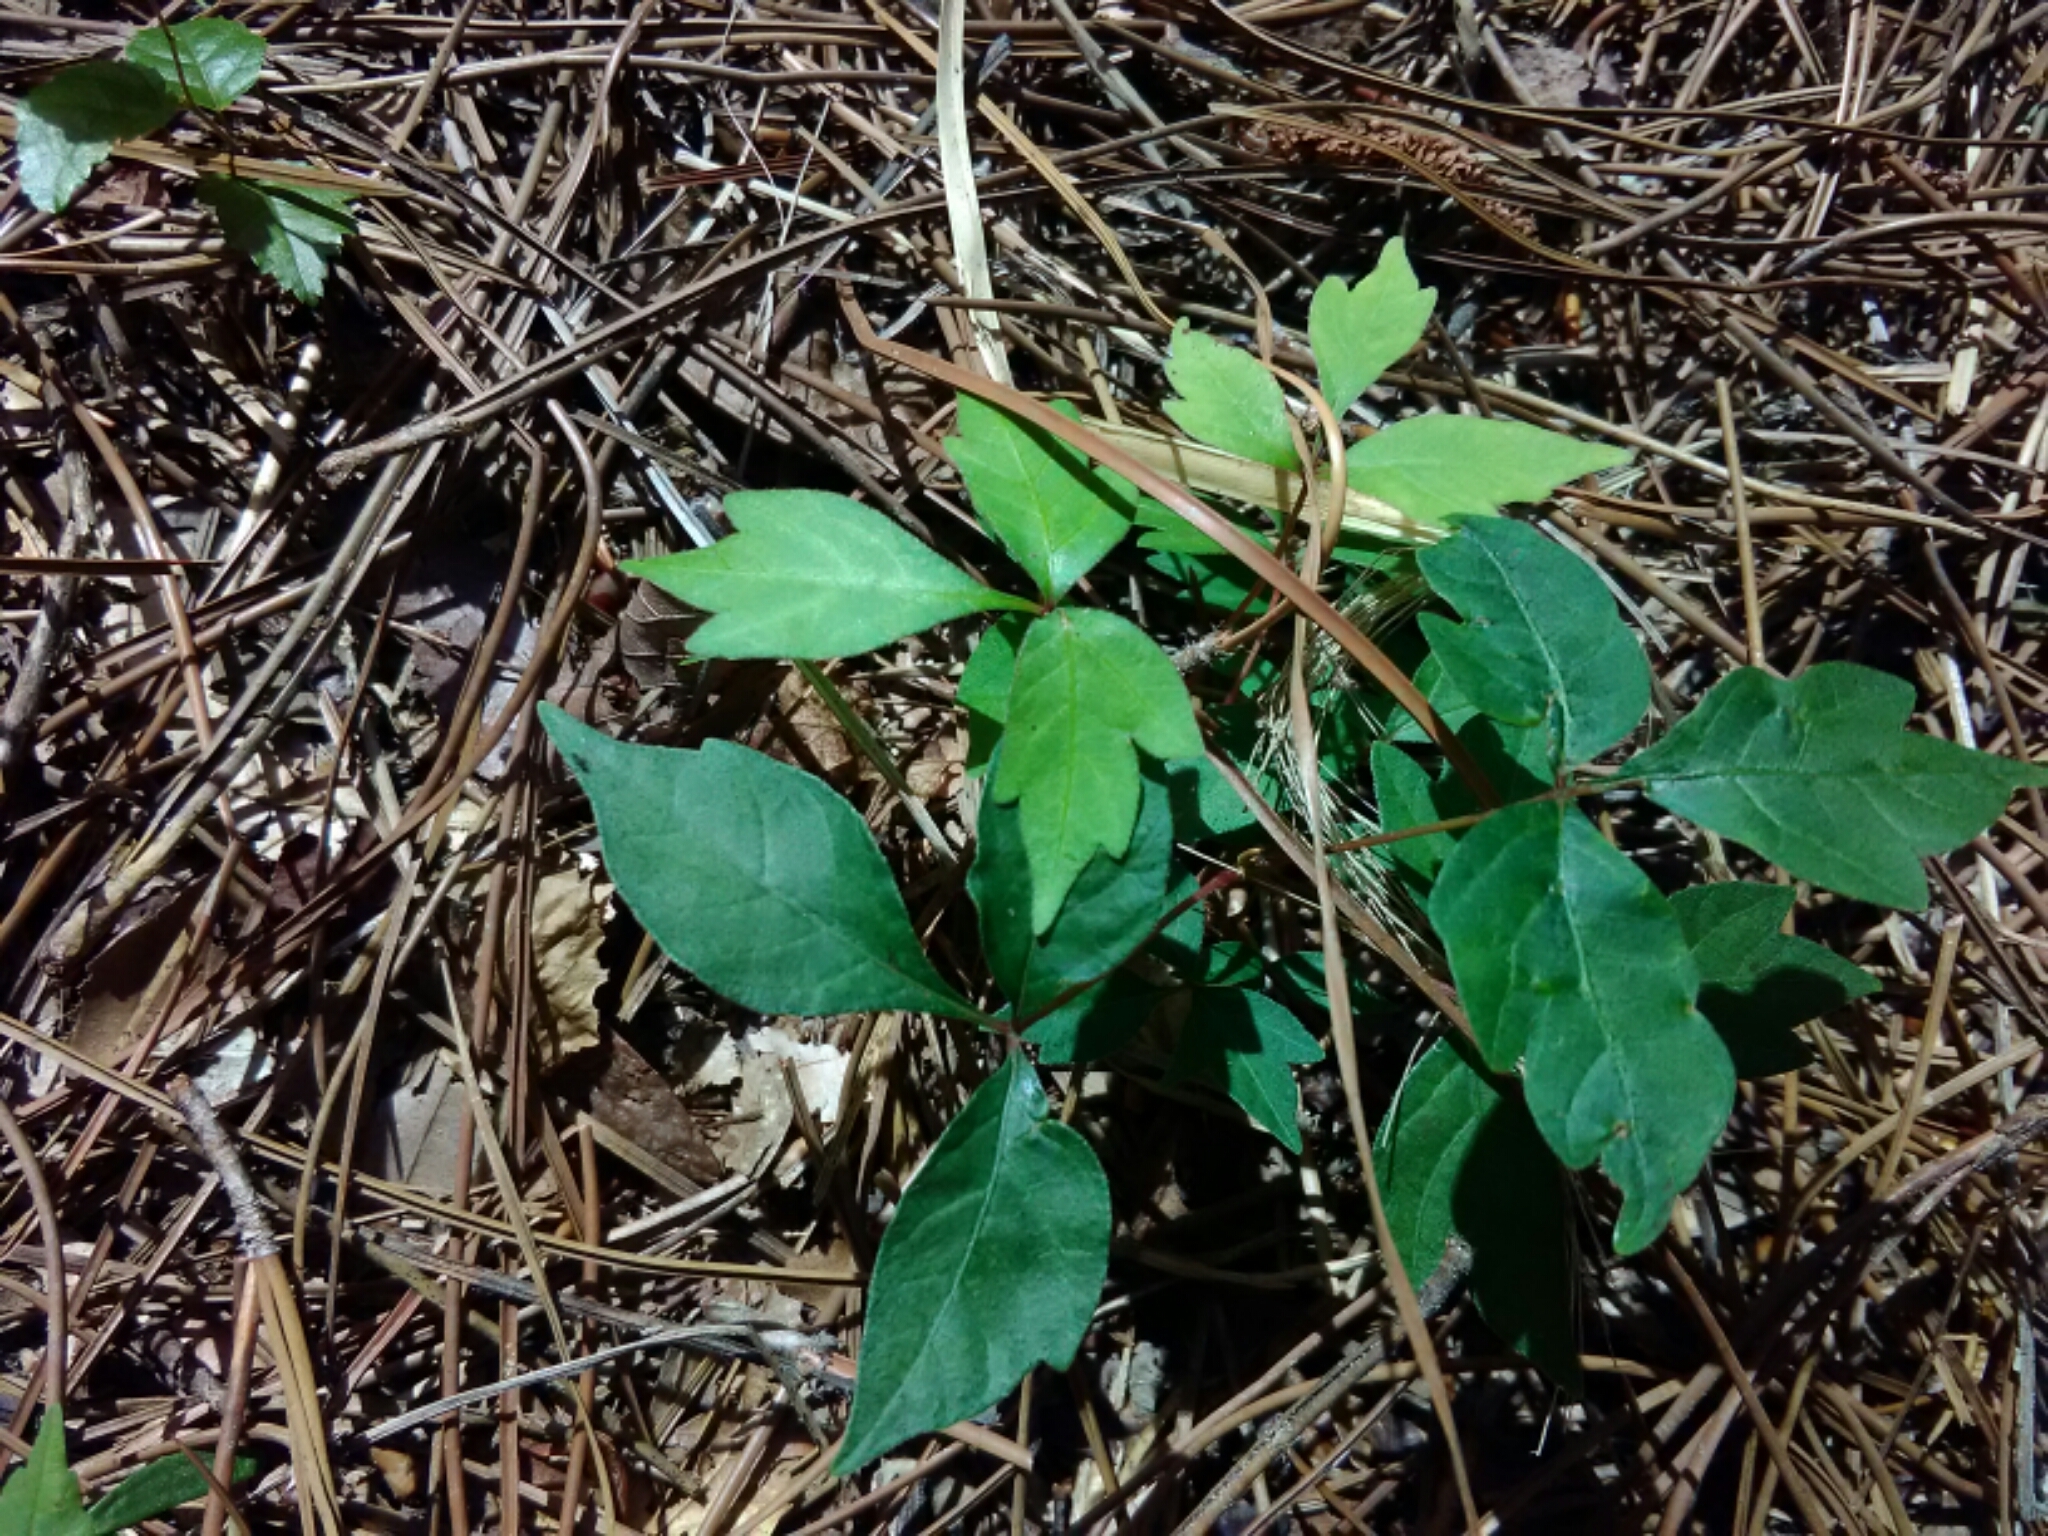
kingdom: Plantae
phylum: Tracheophyta
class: Magnoliopsida
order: Sapindales
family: Anacardiaceae
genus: Toxicodendron
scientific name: Toxicodendron radicans
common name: Poison ivy
